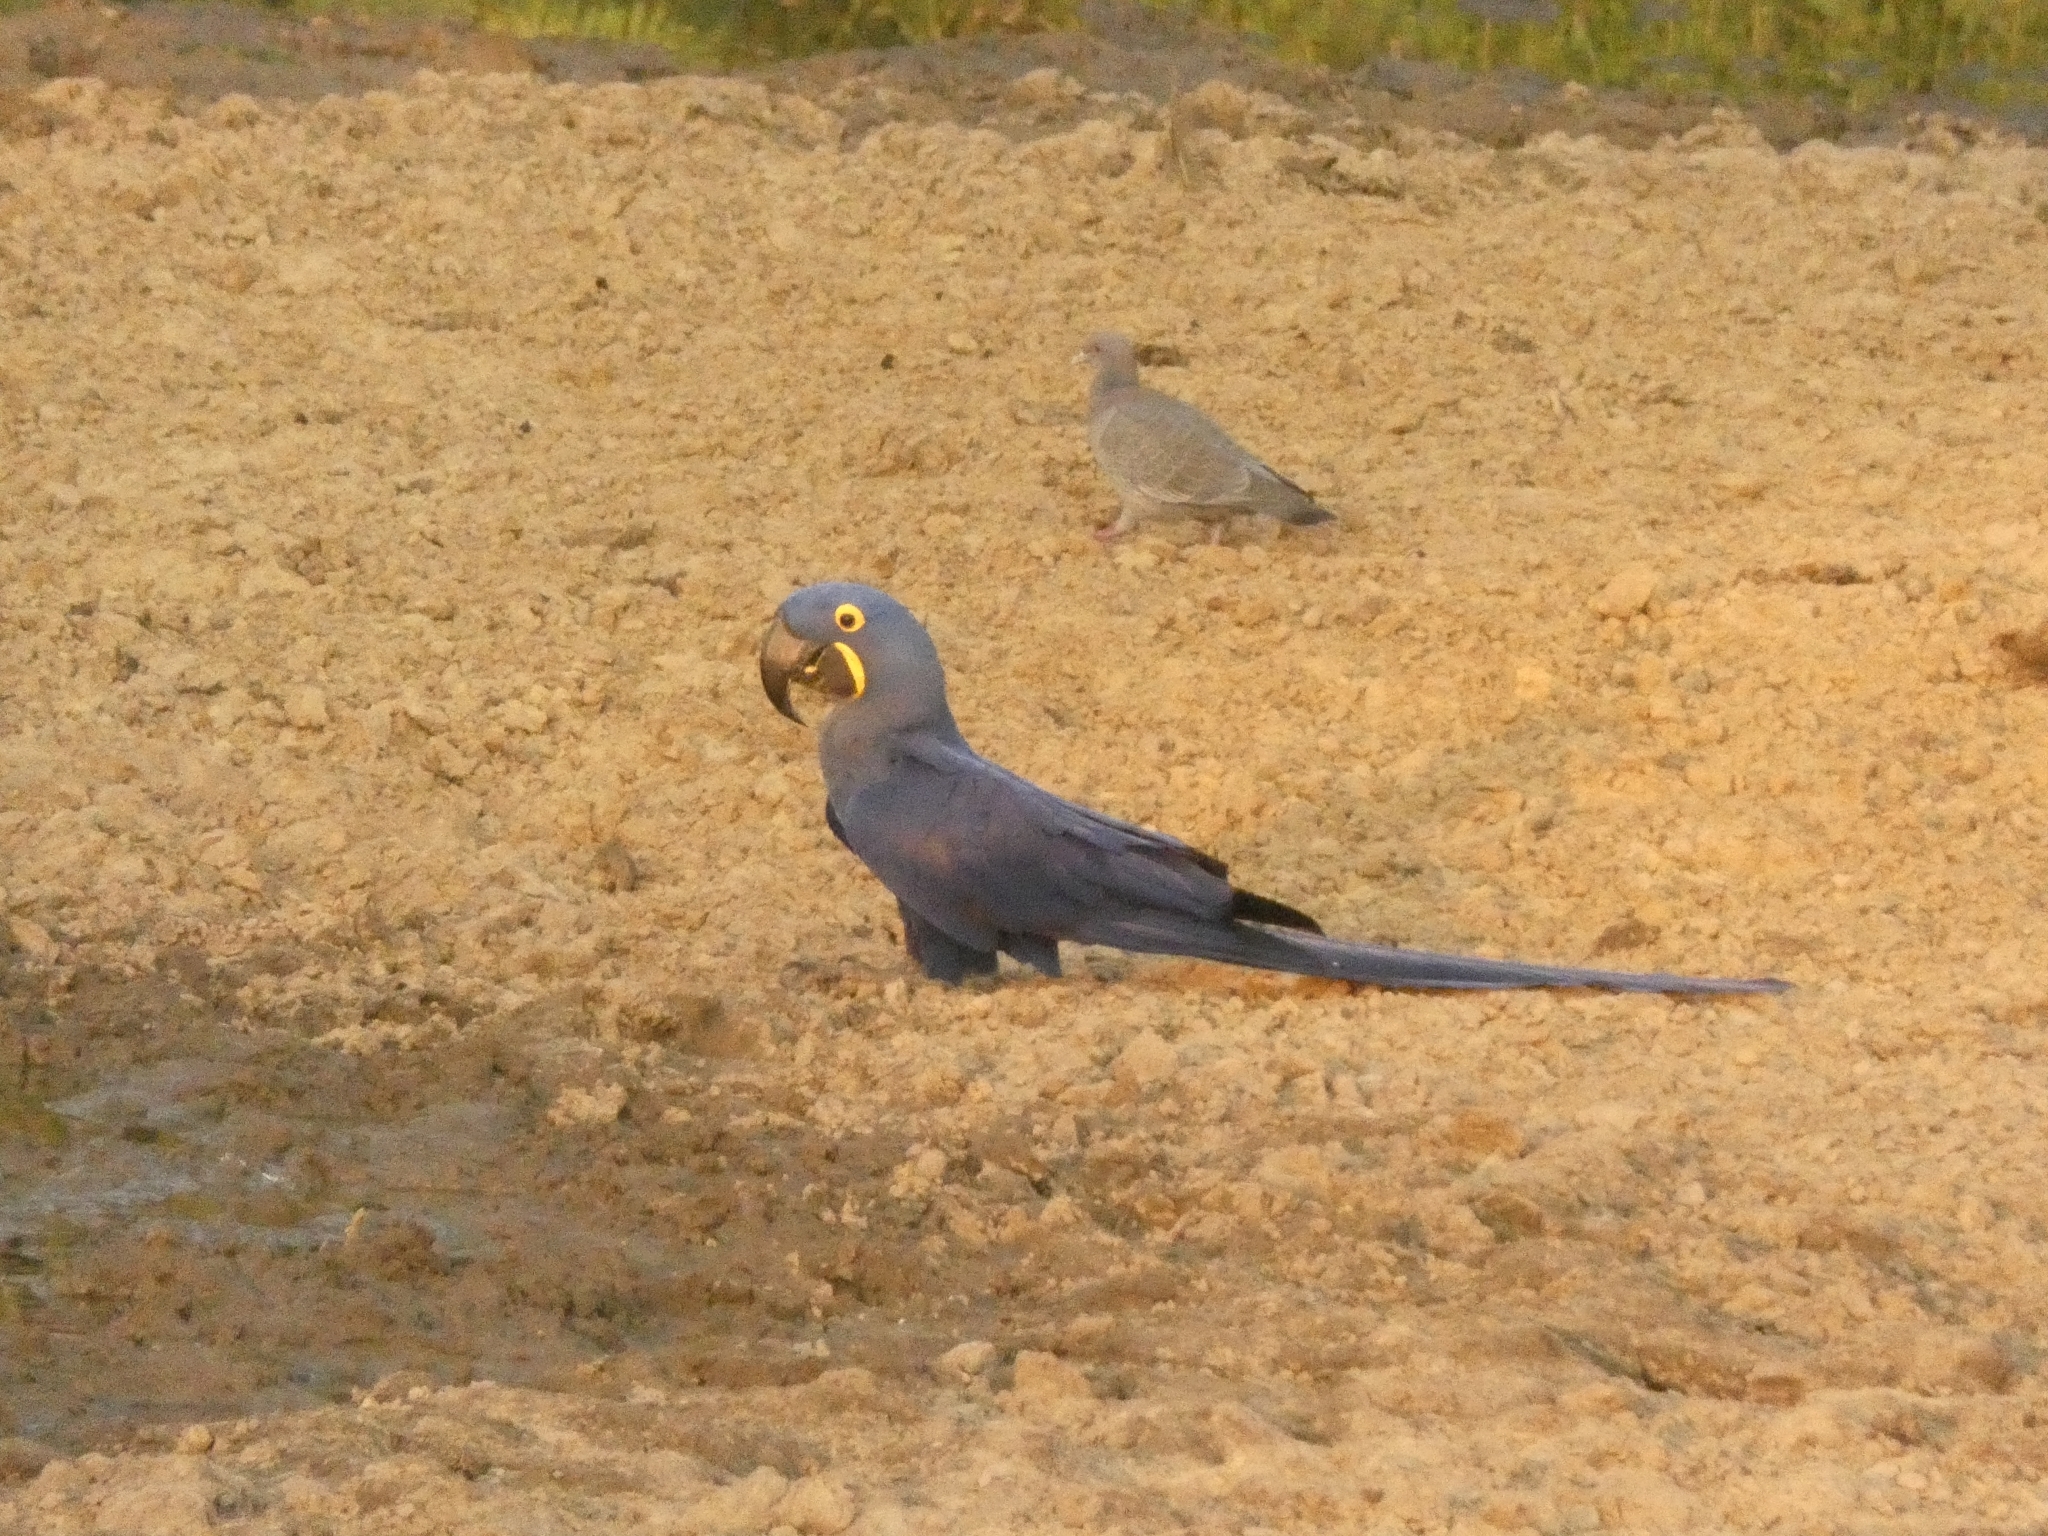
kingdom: Animalia
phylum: Chordata
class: Aves
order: Psittaciformes
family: Psittacidae
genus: Anodorhynchus
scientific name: Anodorhynchus hyacinthinus
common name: Hyacinth macaw
